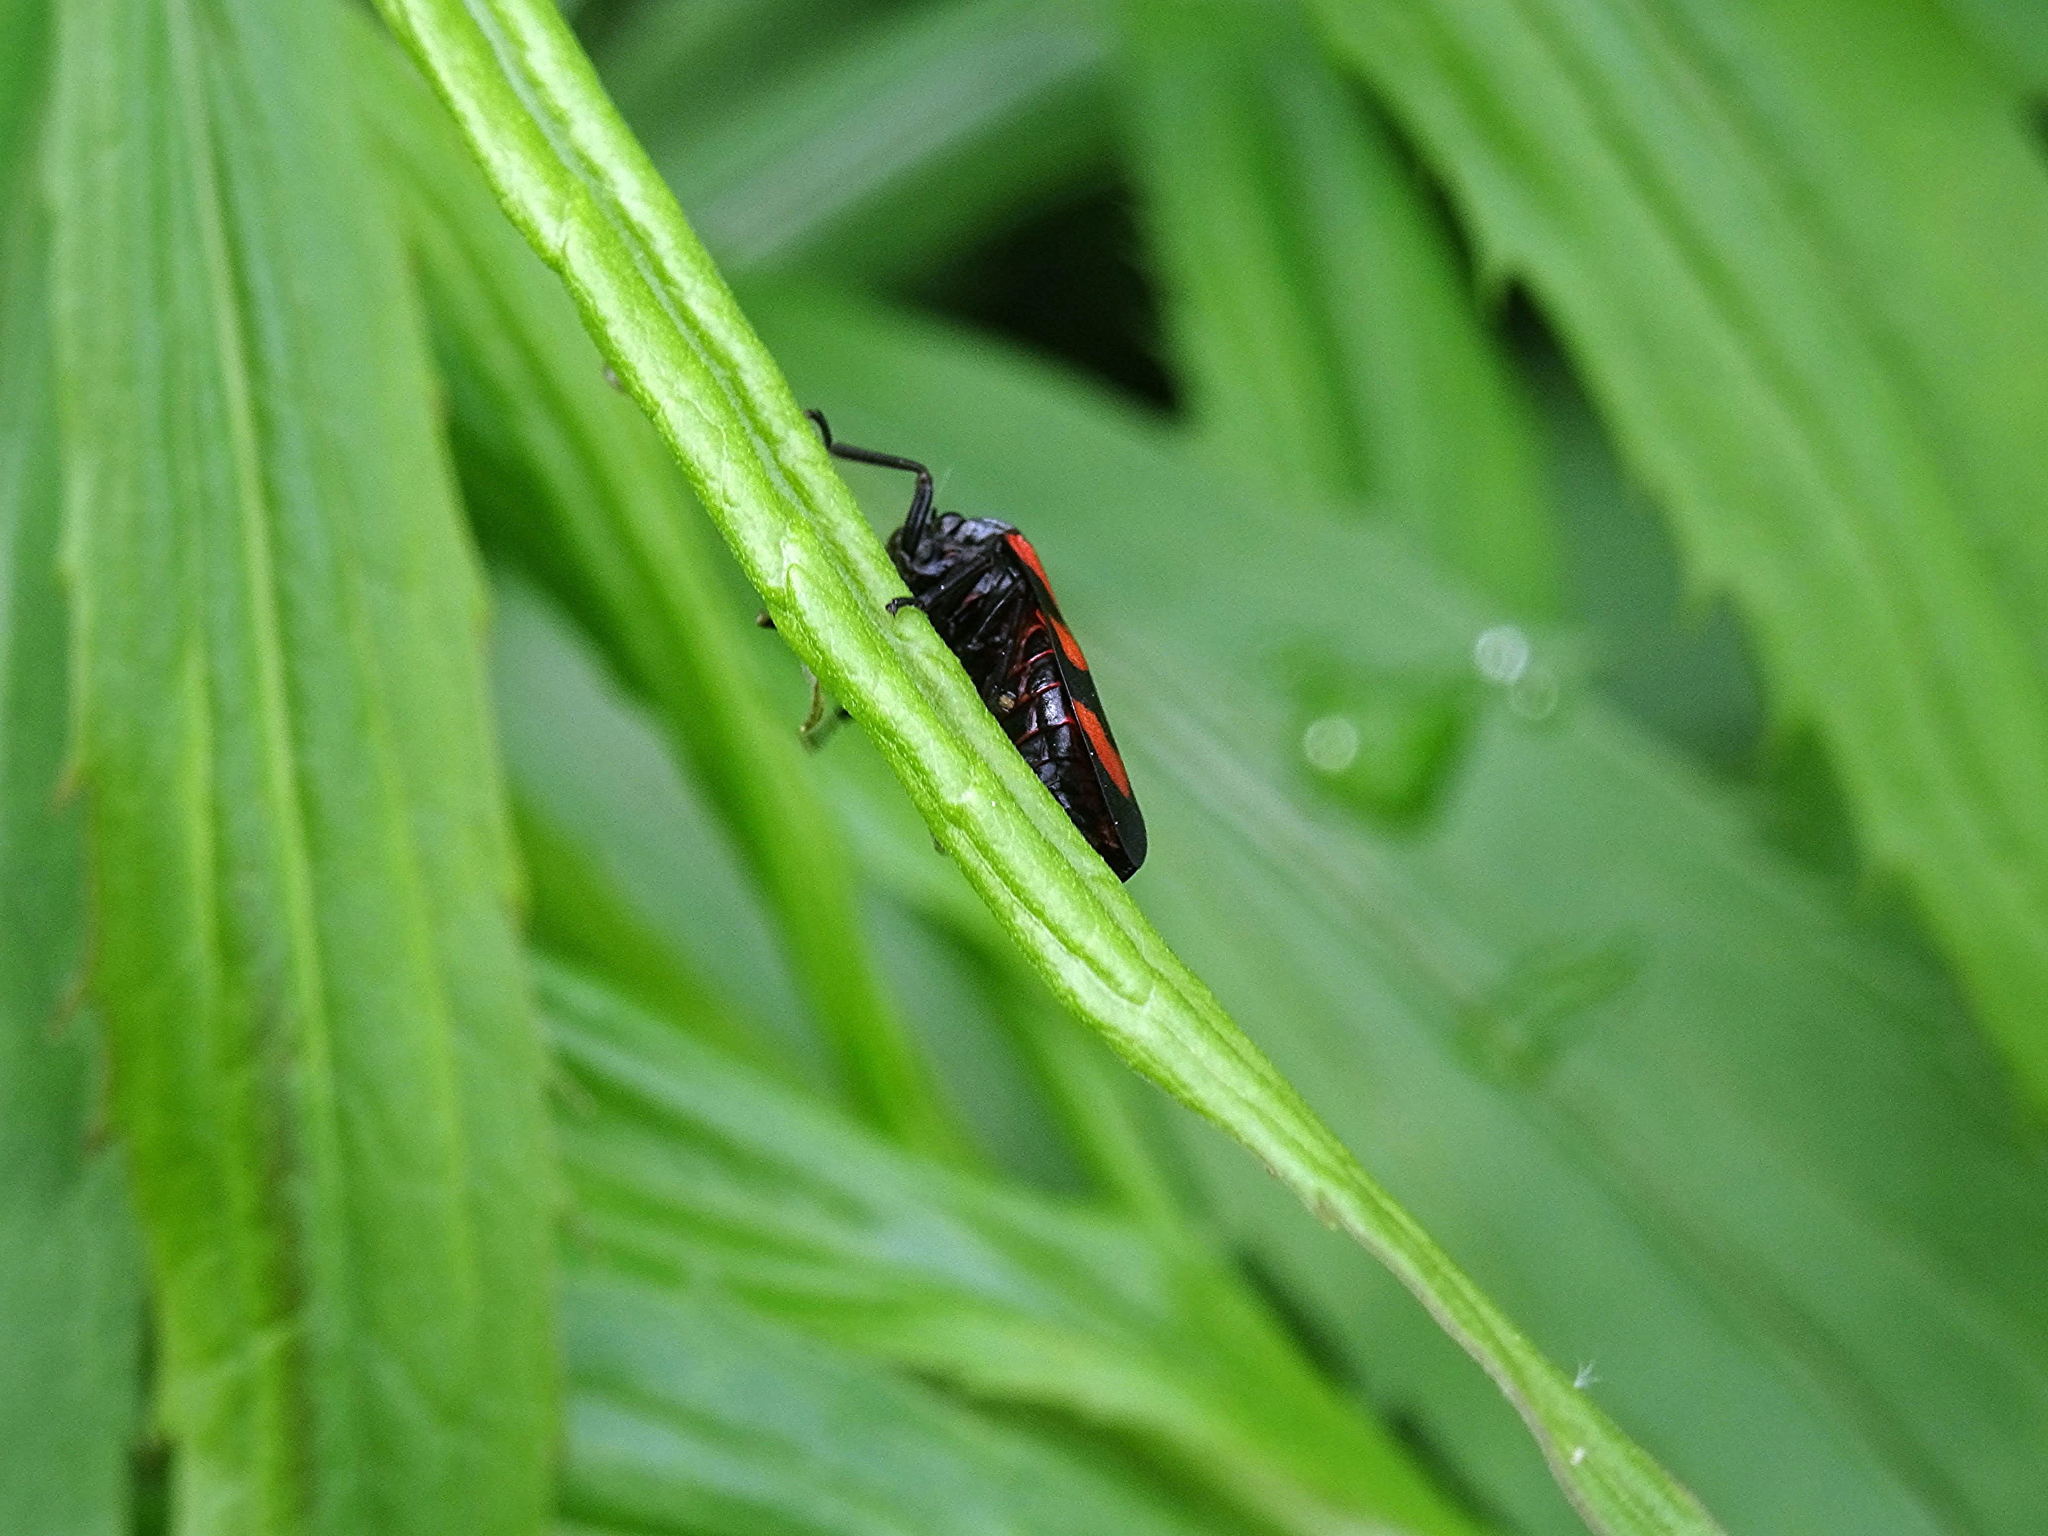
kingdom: Animalia
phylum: Arthropoda
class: Insecta
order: Hemiptera
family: Cercopidae
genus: Cercopis
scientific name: Cercopis vulnerata
